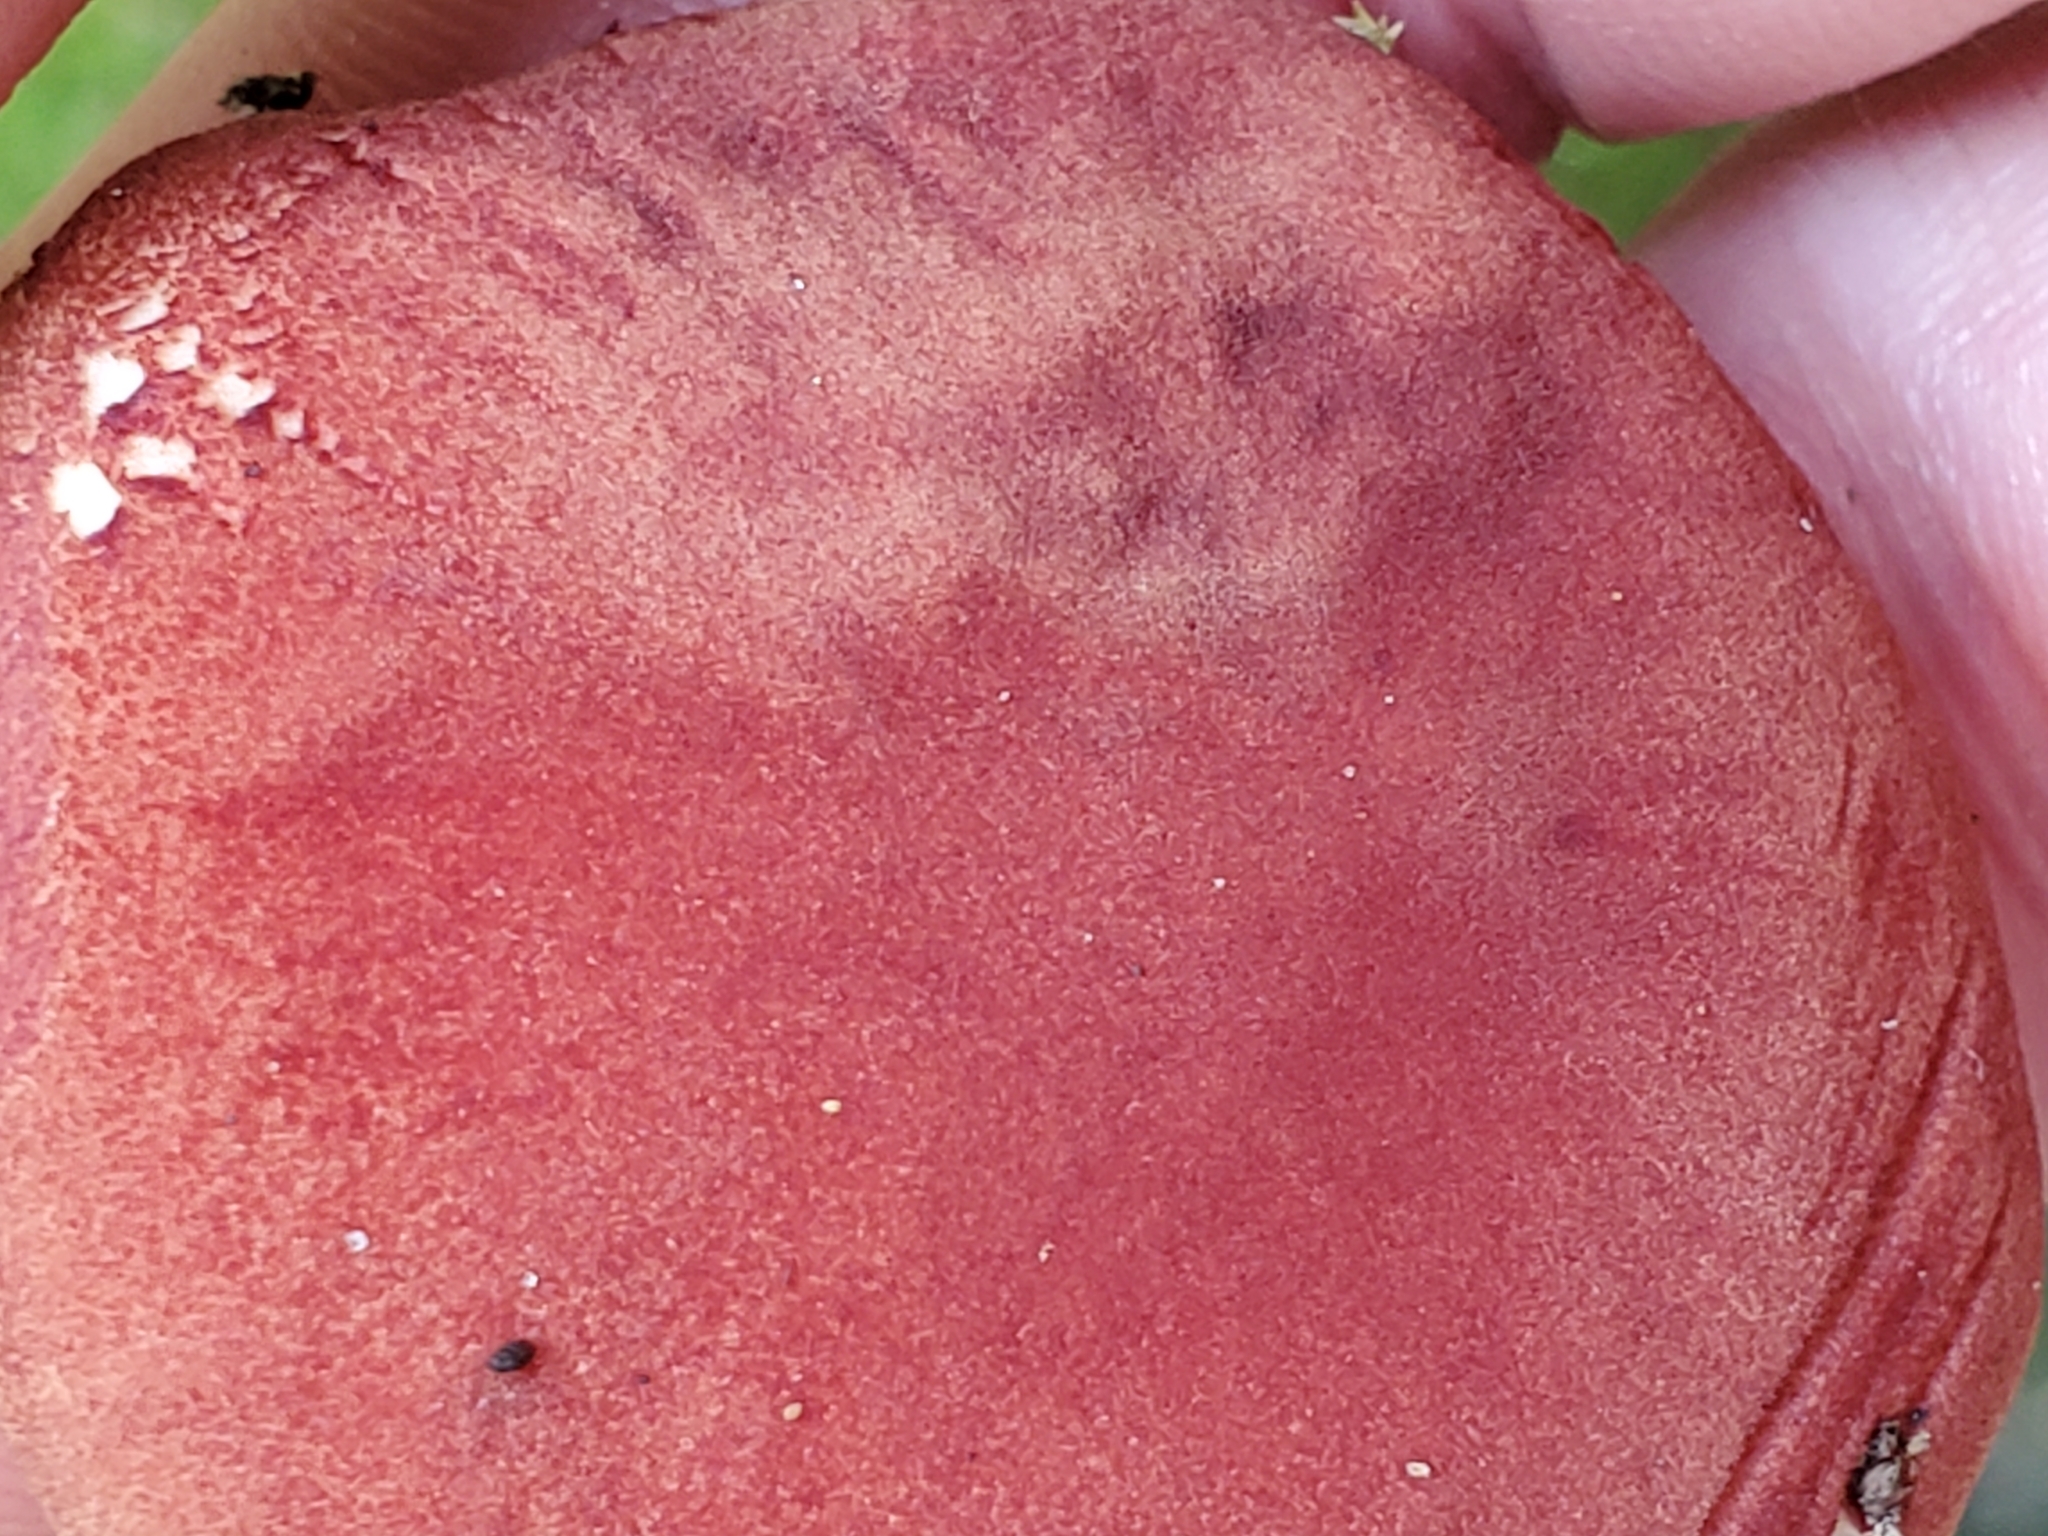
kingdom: Fungi
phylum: Basidiomycota
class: Agaricomycetes
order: Boletales
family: Boletaceae
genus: Phylloporus
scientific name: Phylloporus leucomycelinus
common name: Gilled bolete
